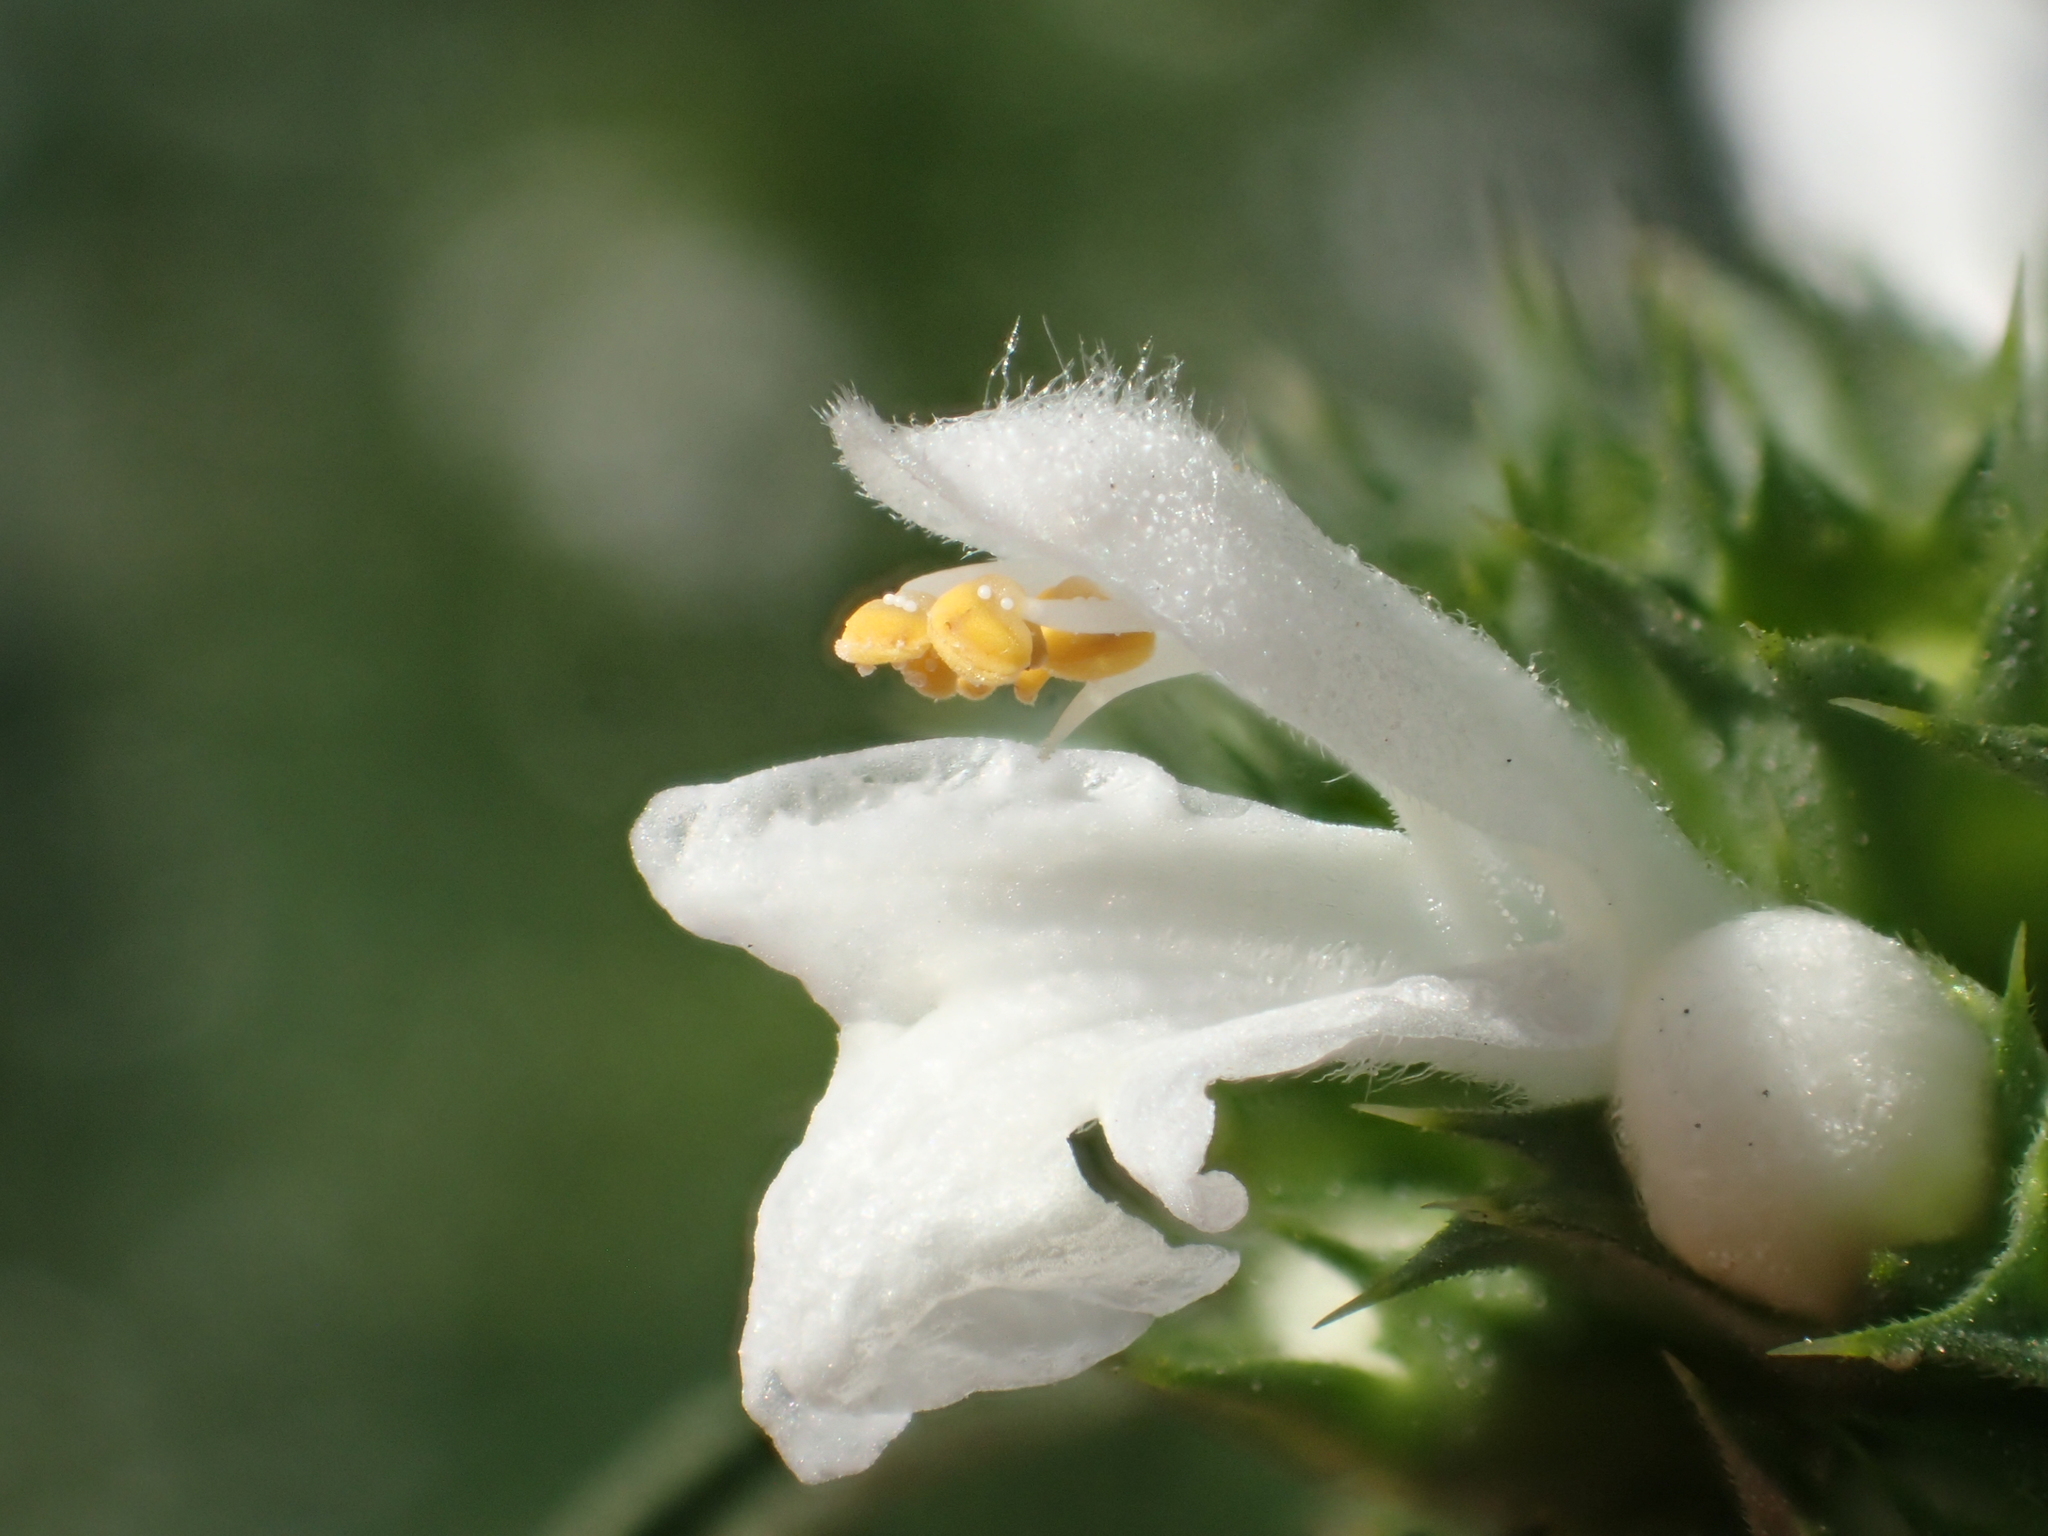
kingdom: Plantae
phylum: Tracheophyta
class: Magnoliopsida
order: Lamiales
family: Lamiaceae
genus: Leonurus
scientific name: Leonurus japonicus
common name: Honeyweed
